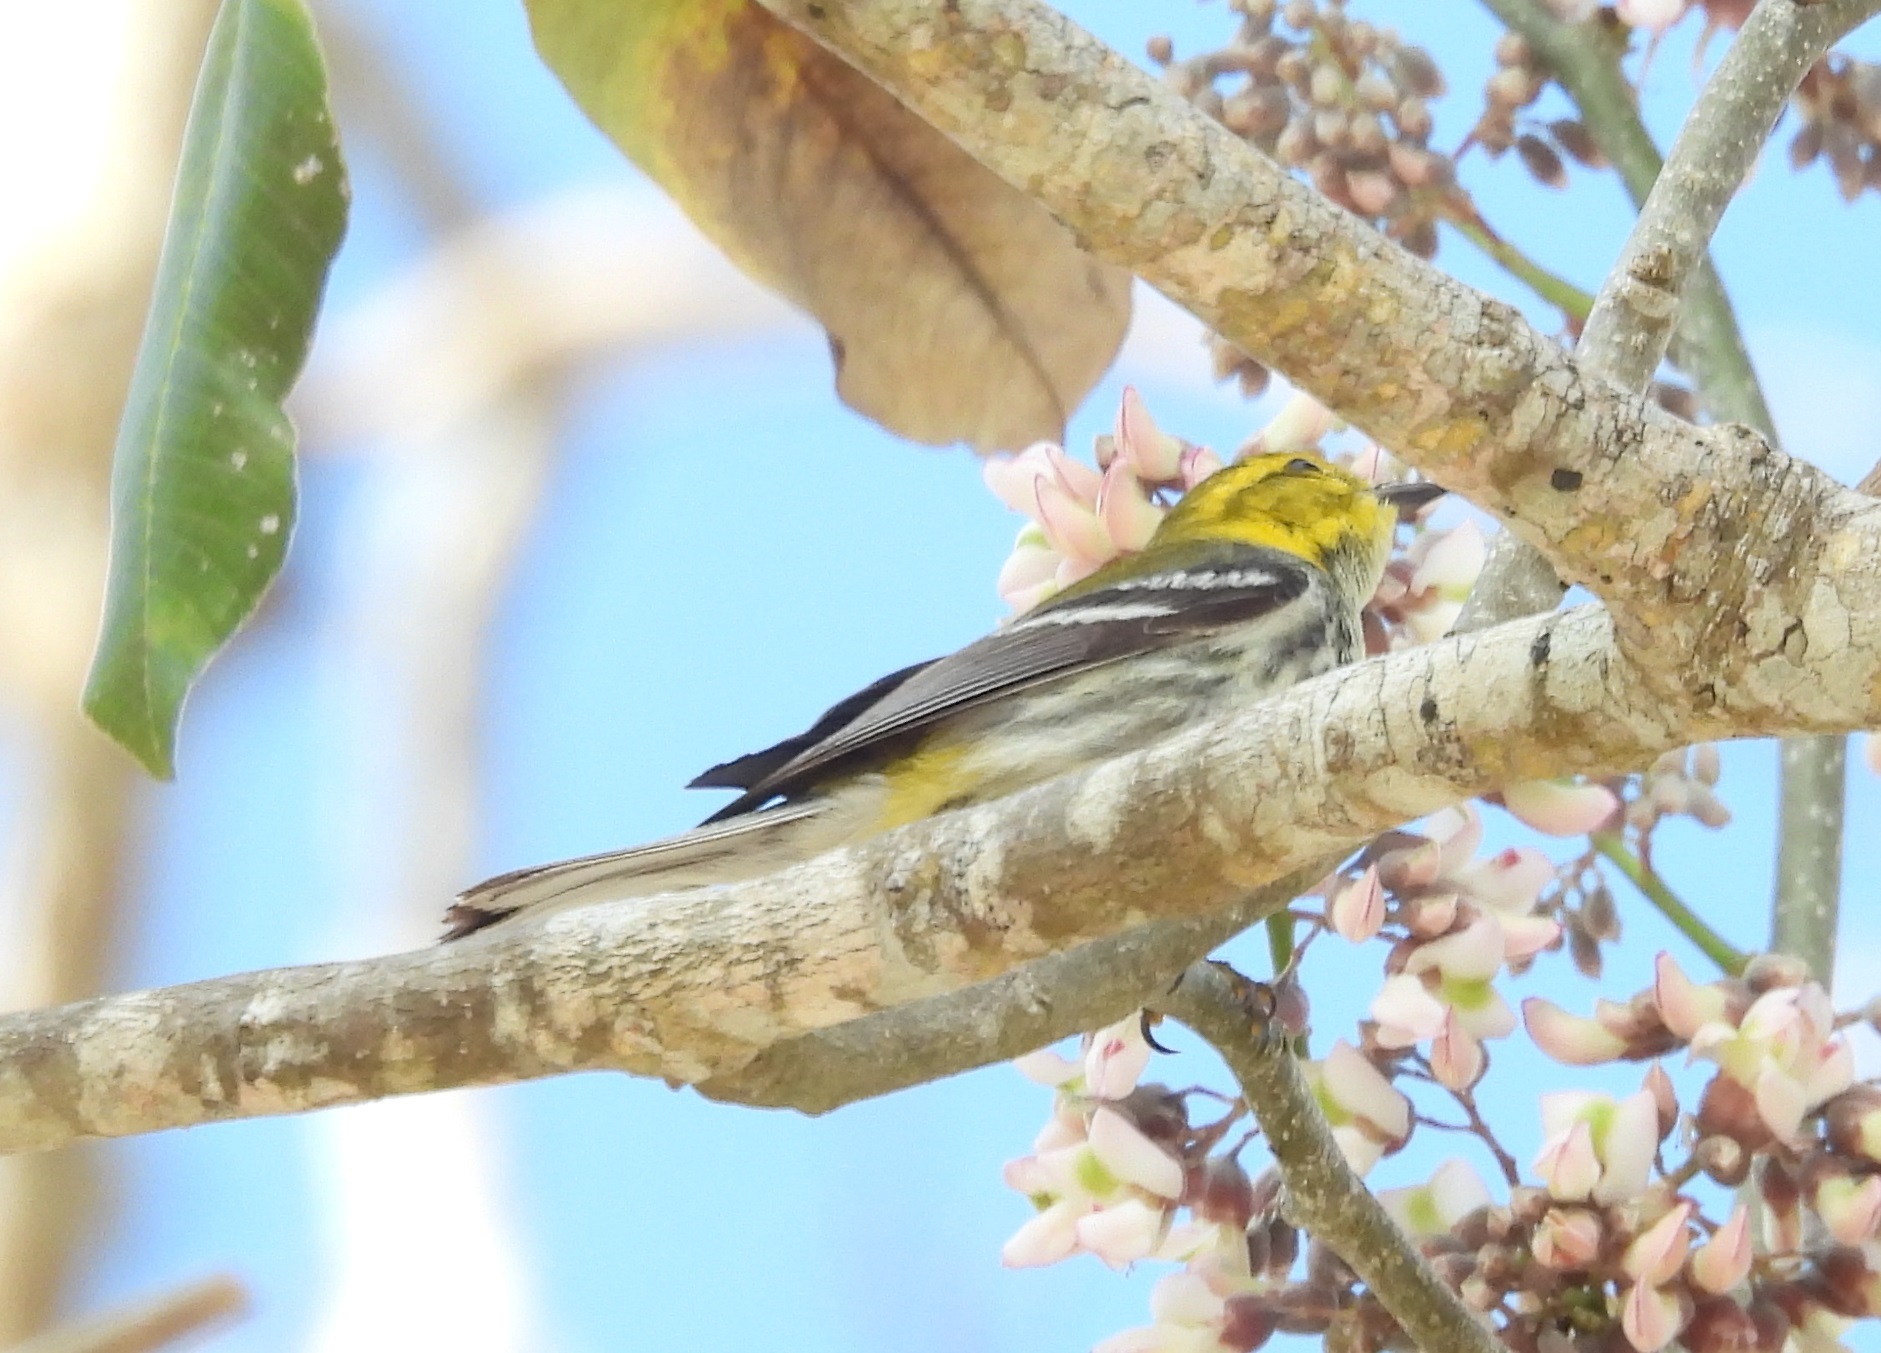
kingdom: Animalia
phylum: Chordata
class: Aves
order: Passeriformes
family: Parulidae
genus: Setophaga
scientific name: Setophaga virens
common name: Black-throated green warbler
